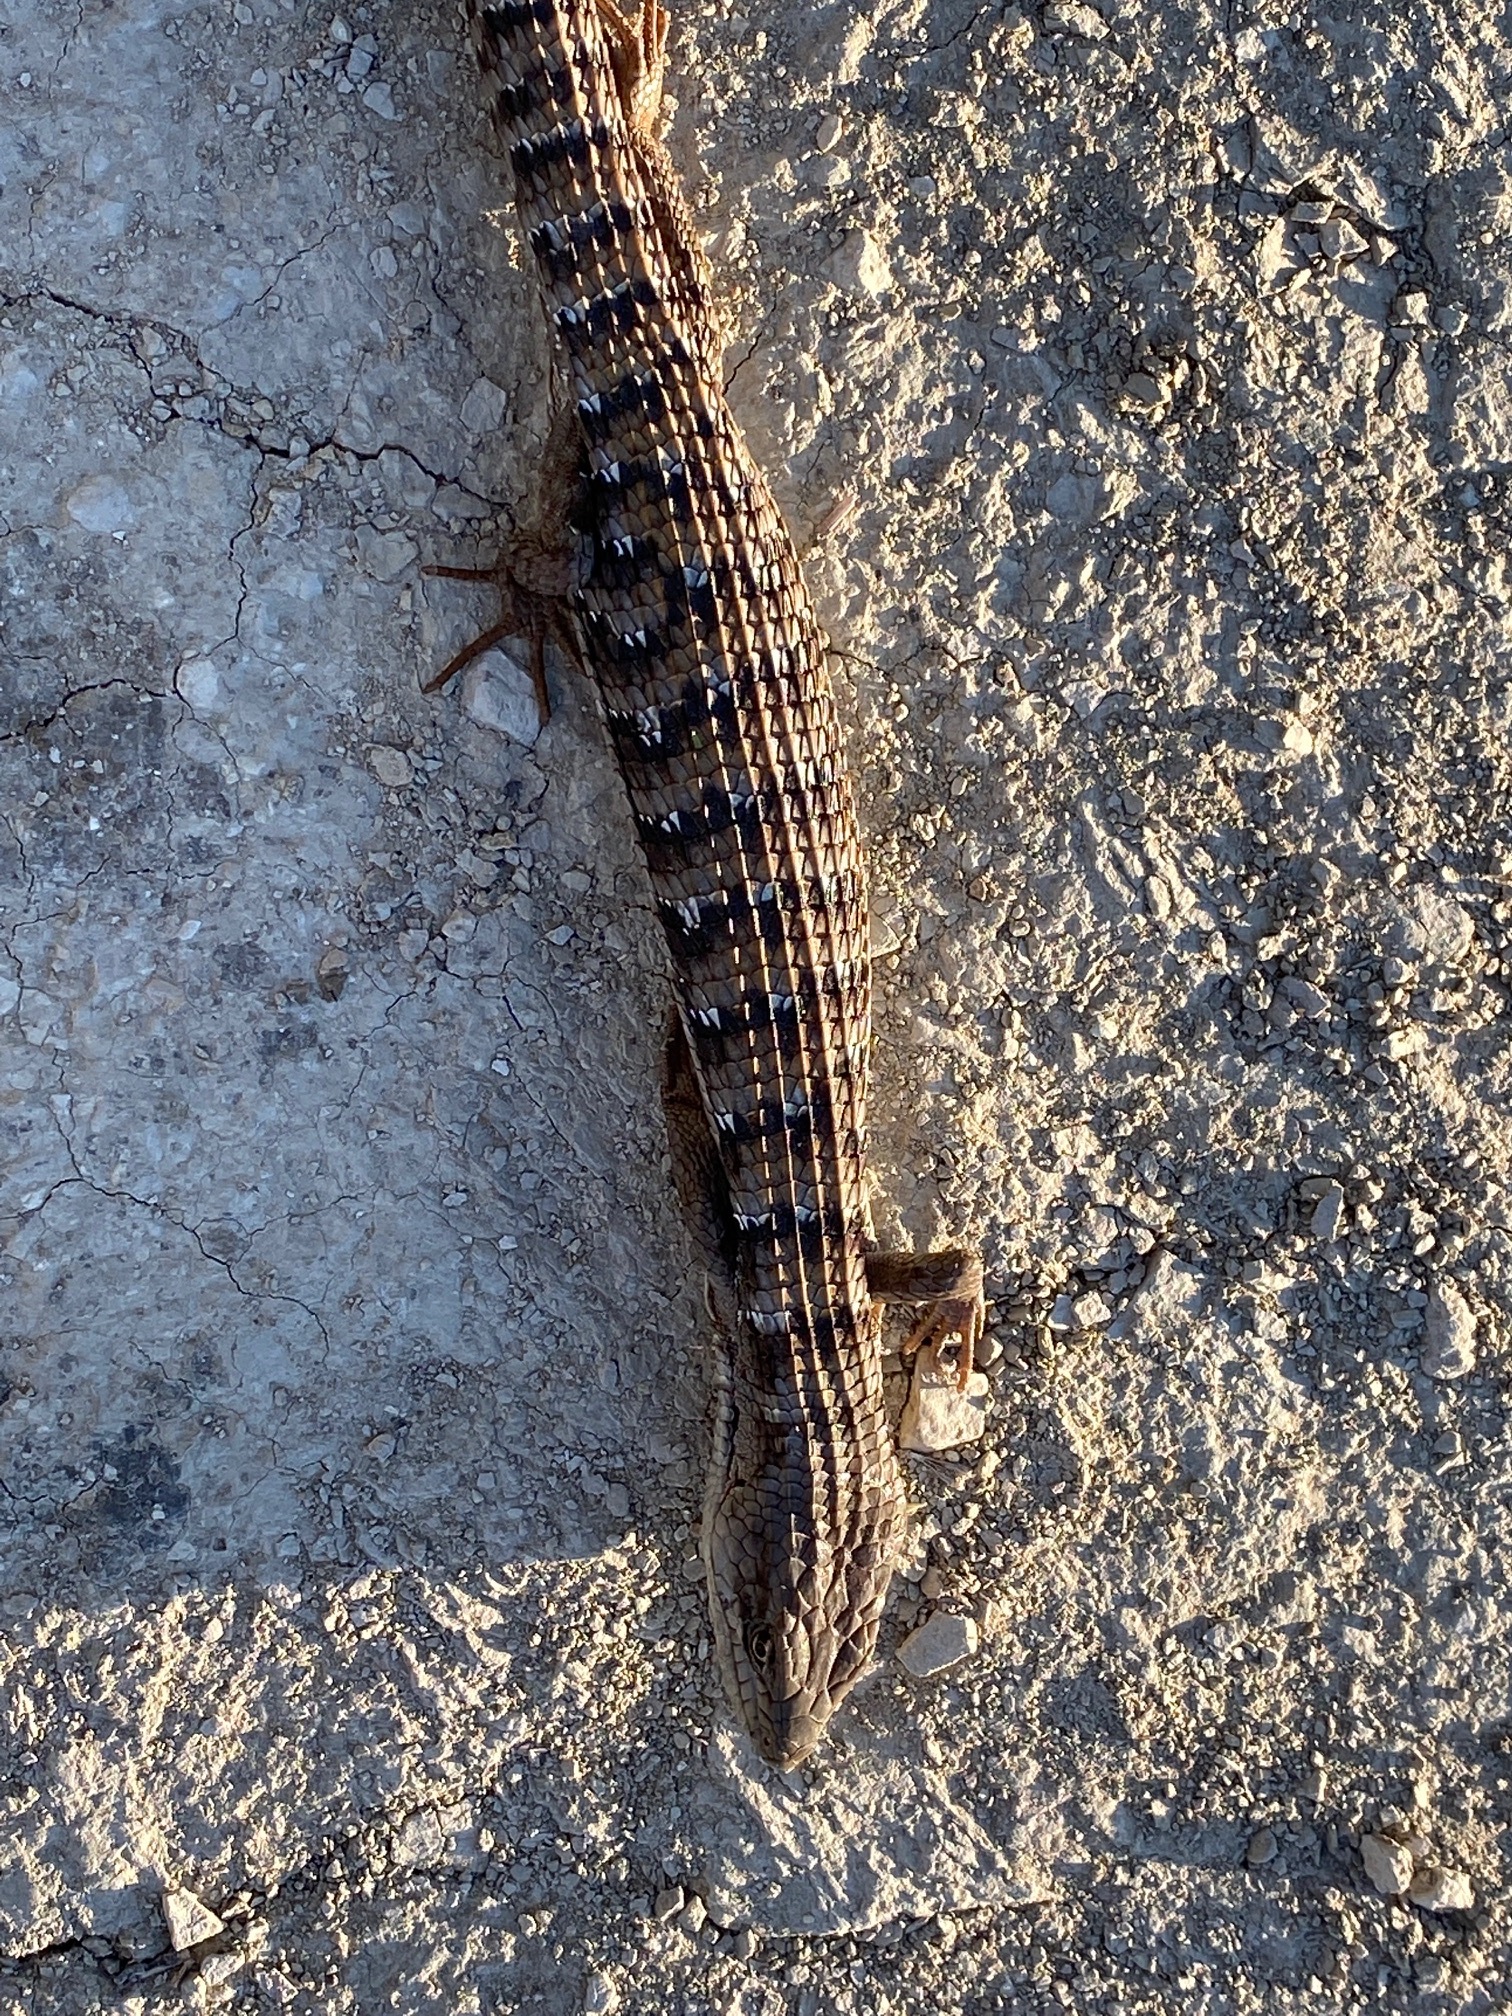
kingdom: Animalia
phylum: Chordata
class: Squamata
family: Anguidae
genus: Elgaria
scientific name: Elgaria multicarinata
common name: Southern alligator lizard
